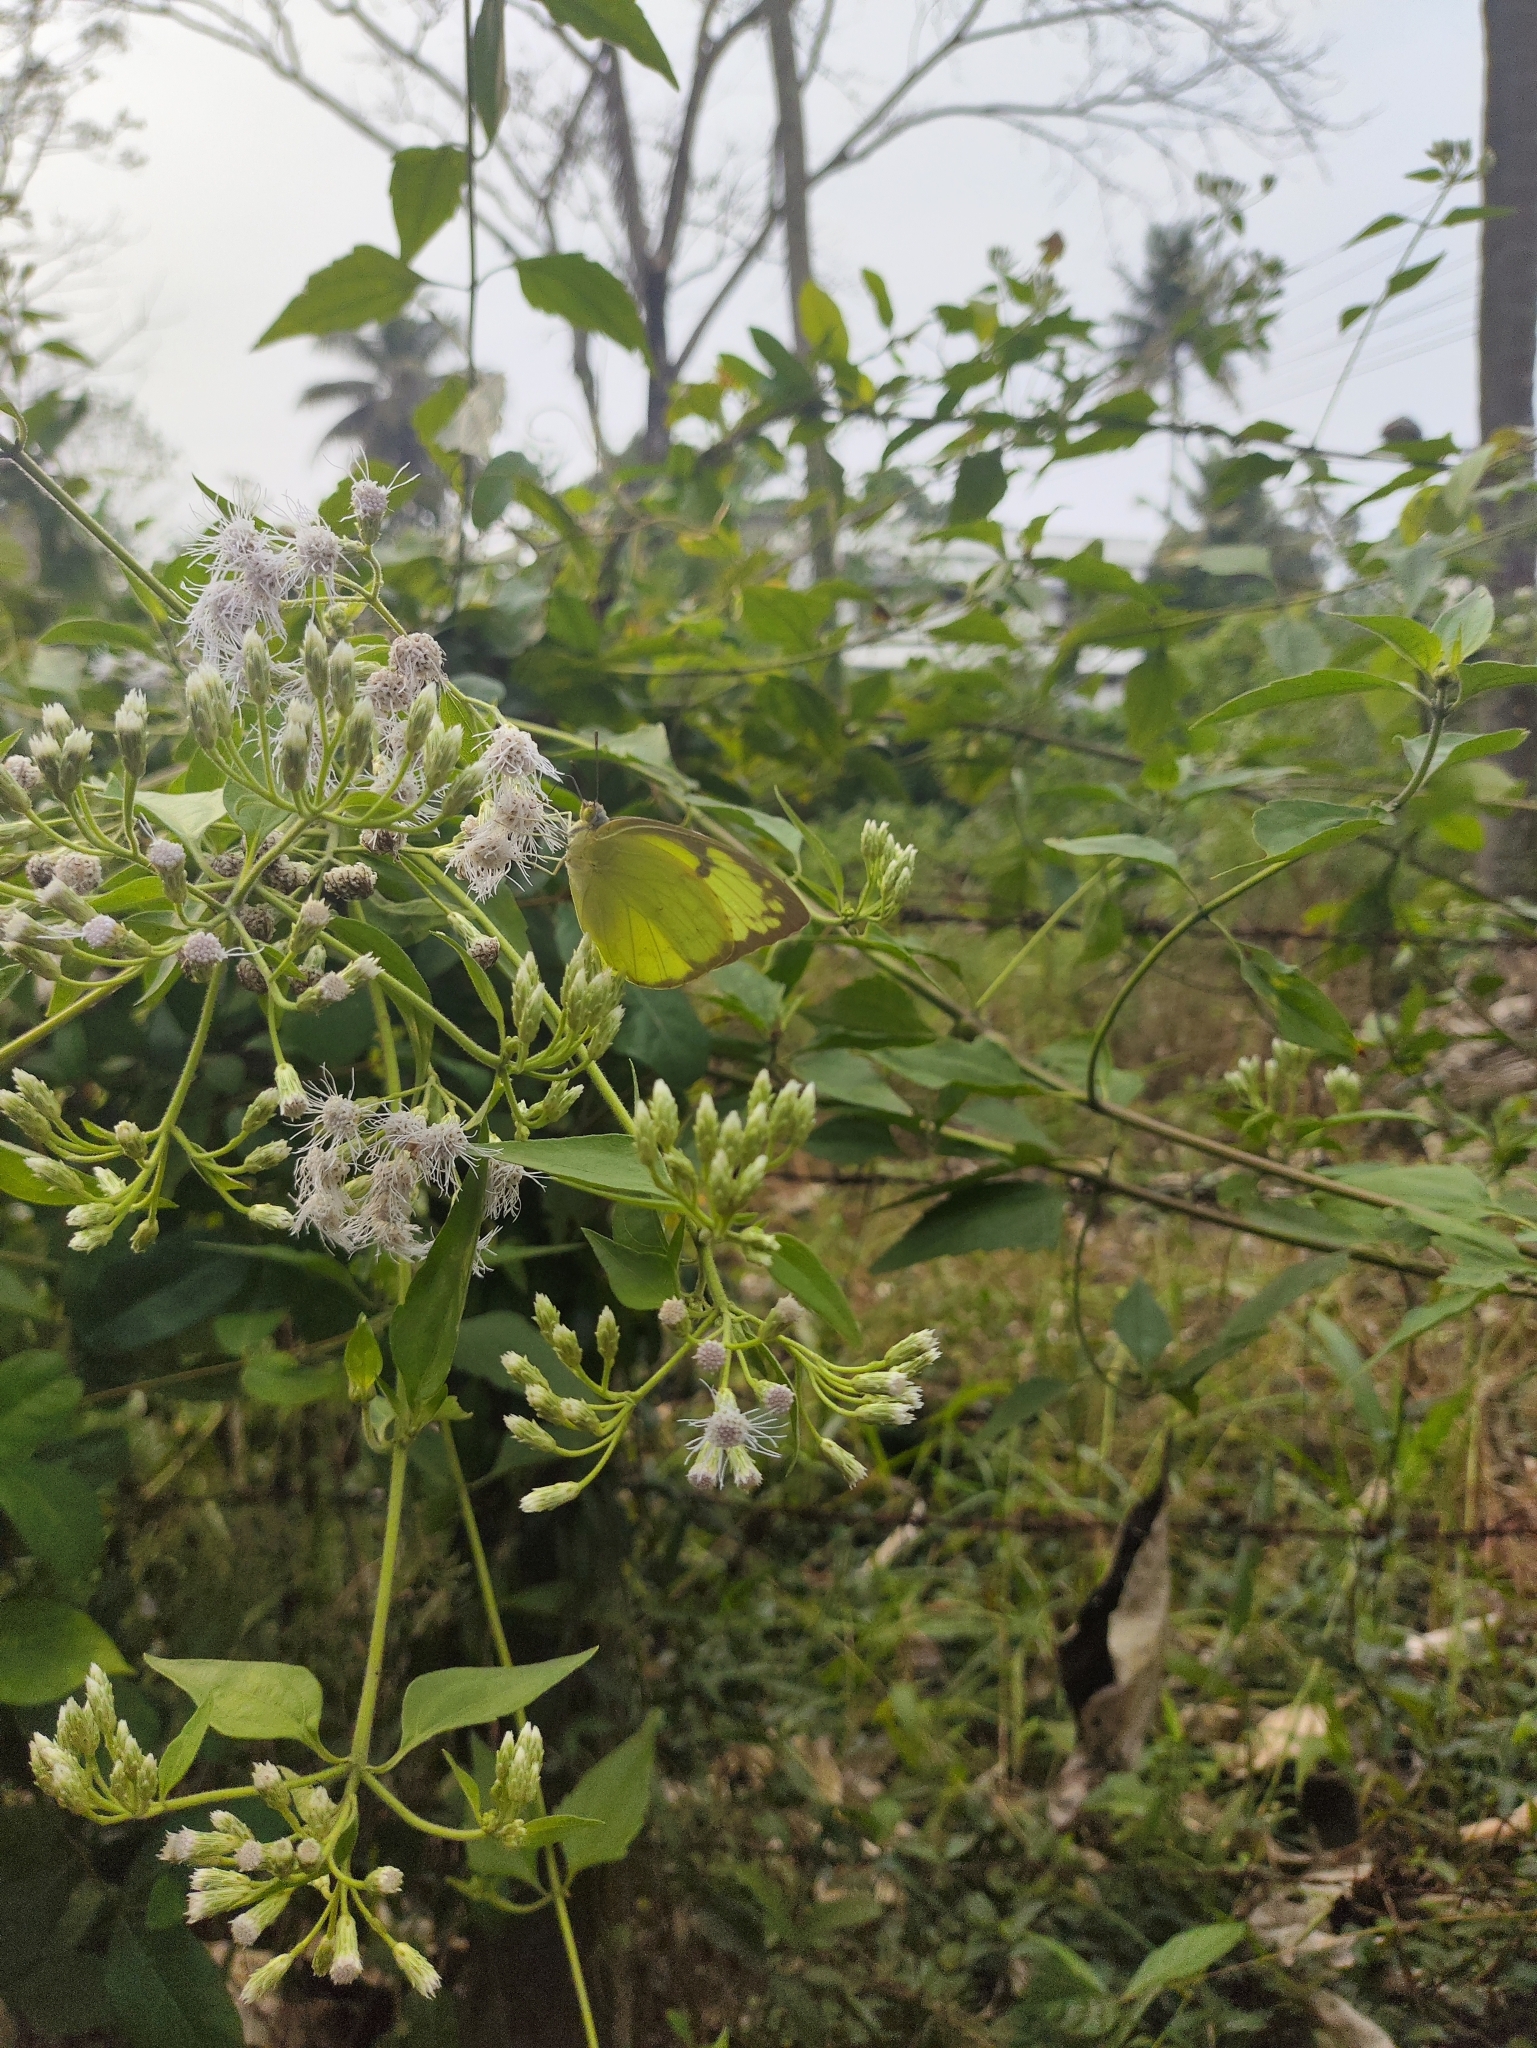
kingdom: Animalia
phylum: Arthropoda
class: Insecta
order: Lepidoptera
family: Pieridae
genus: Catopsilia
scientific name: Catopsilia pomona
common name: Common emigrant
